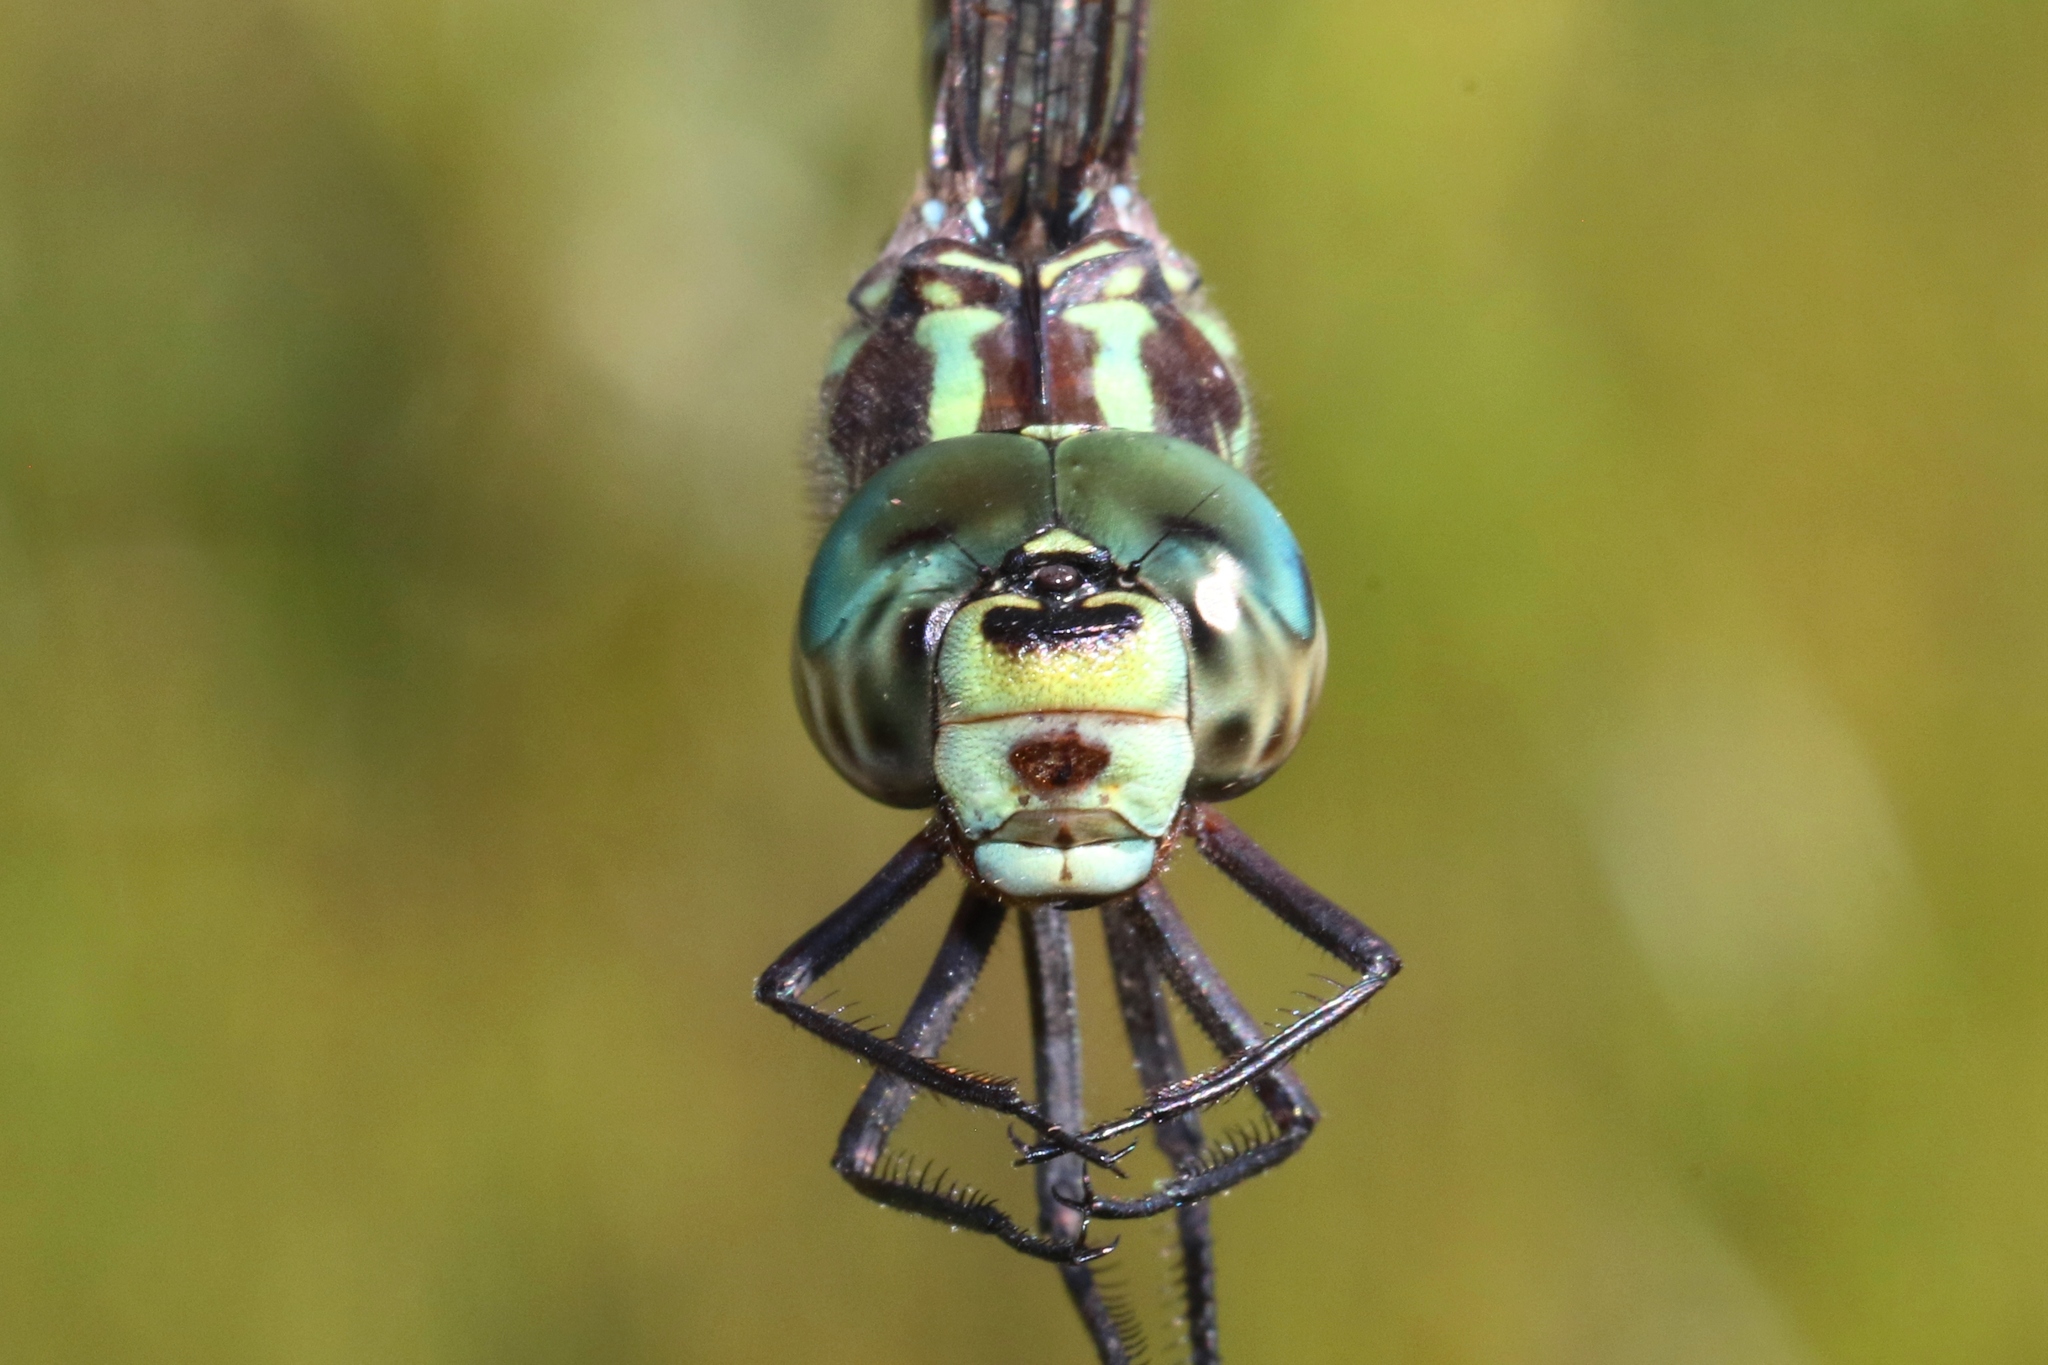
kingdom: Animalia
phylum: Arthropoda
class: Insecta
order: Odonata
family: Aeshnidae
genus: Aeshna
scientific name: Aeshna verticalis
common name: Green-striped darner
